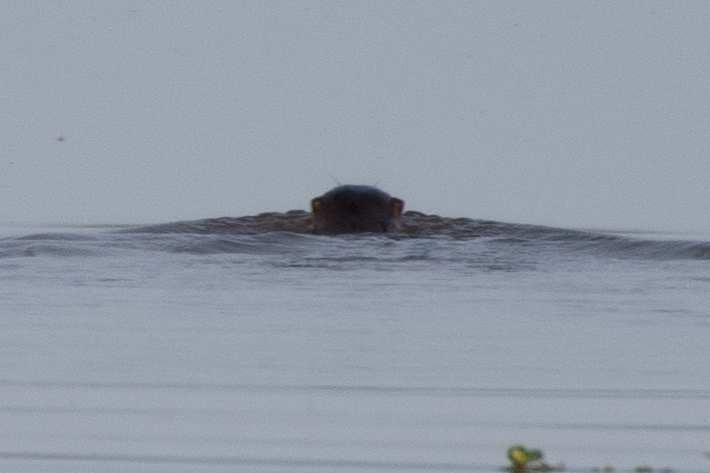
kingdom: Animalia
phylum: Chordata
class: Mammalia
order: Carnivora
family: Mustelidae
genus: Lontra
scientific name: Lontra canadensis
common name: North american river otter
